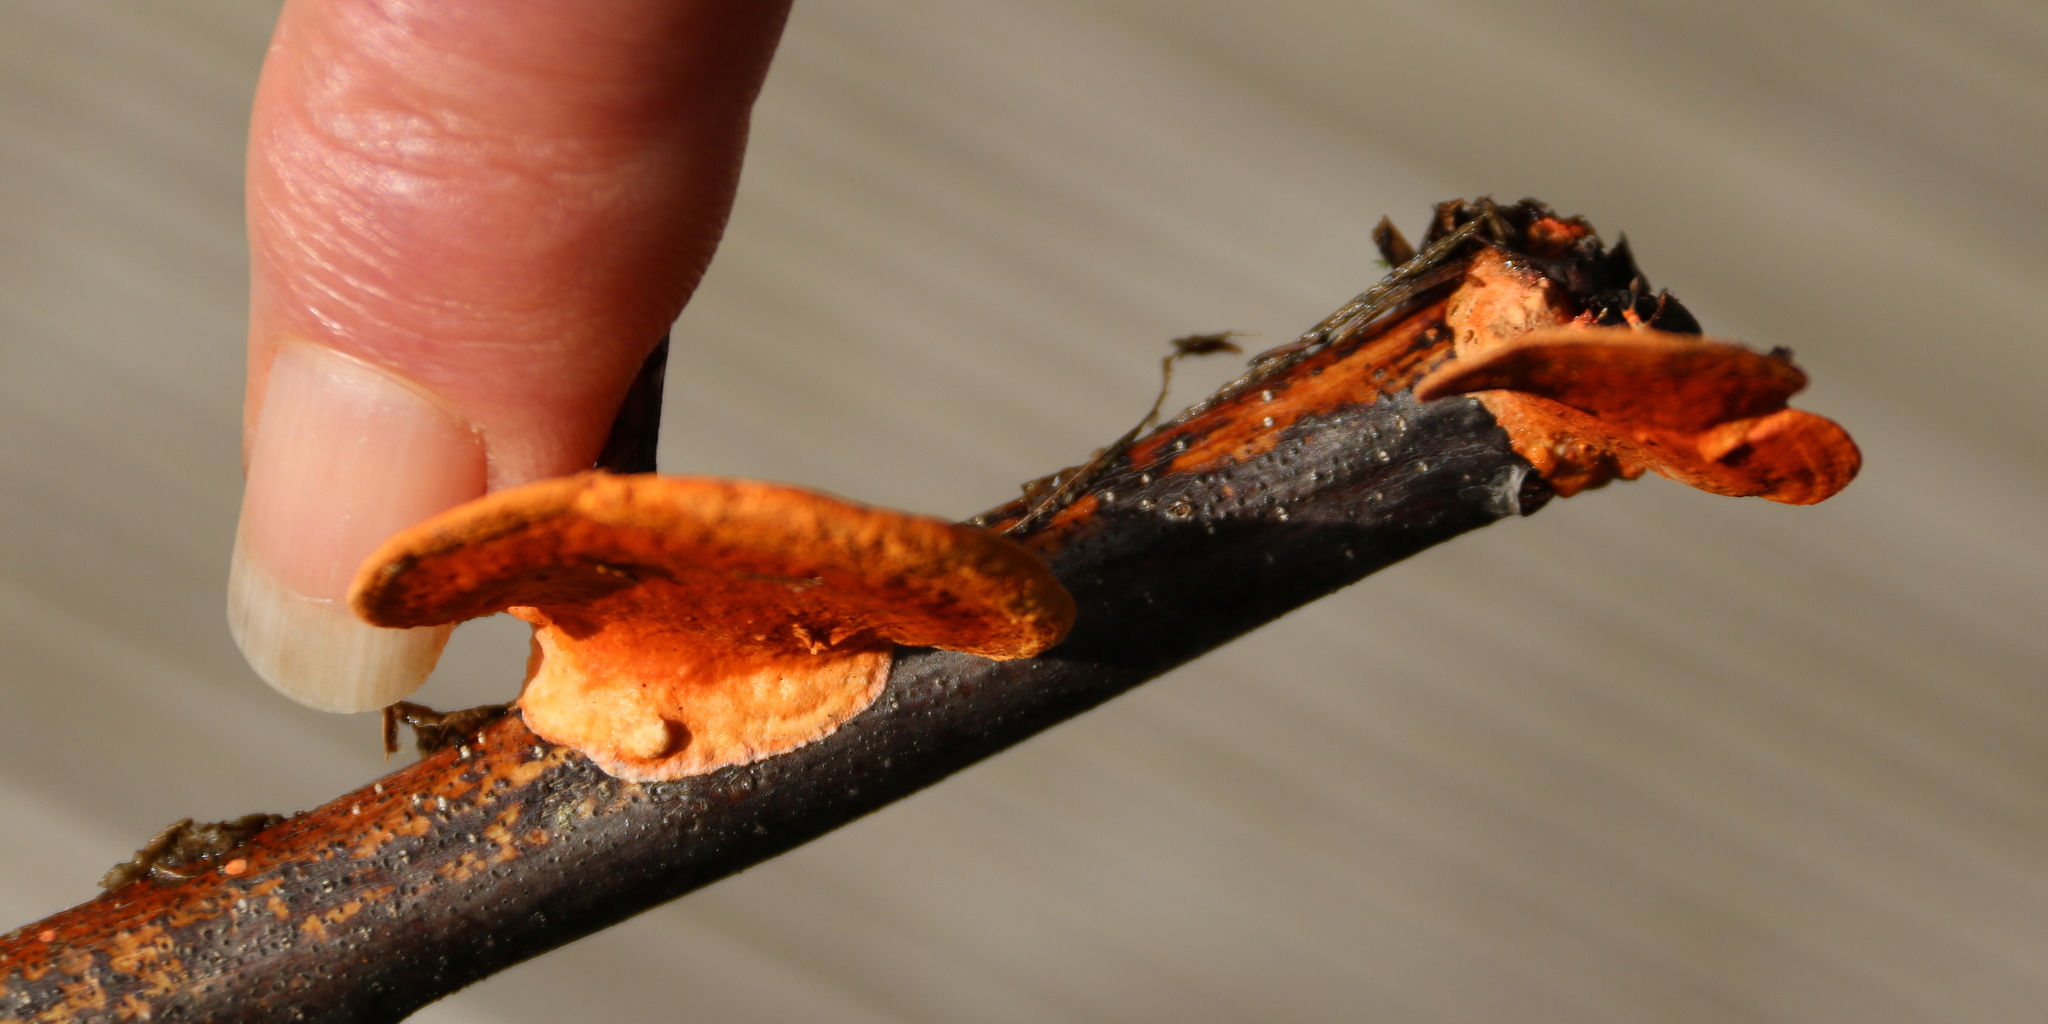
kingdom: Fungi
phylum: Basidiomycota
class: Agaricomycetes
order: Polyporales
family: Polyporaceae
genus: Trametes
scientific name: Trametes coccinea
